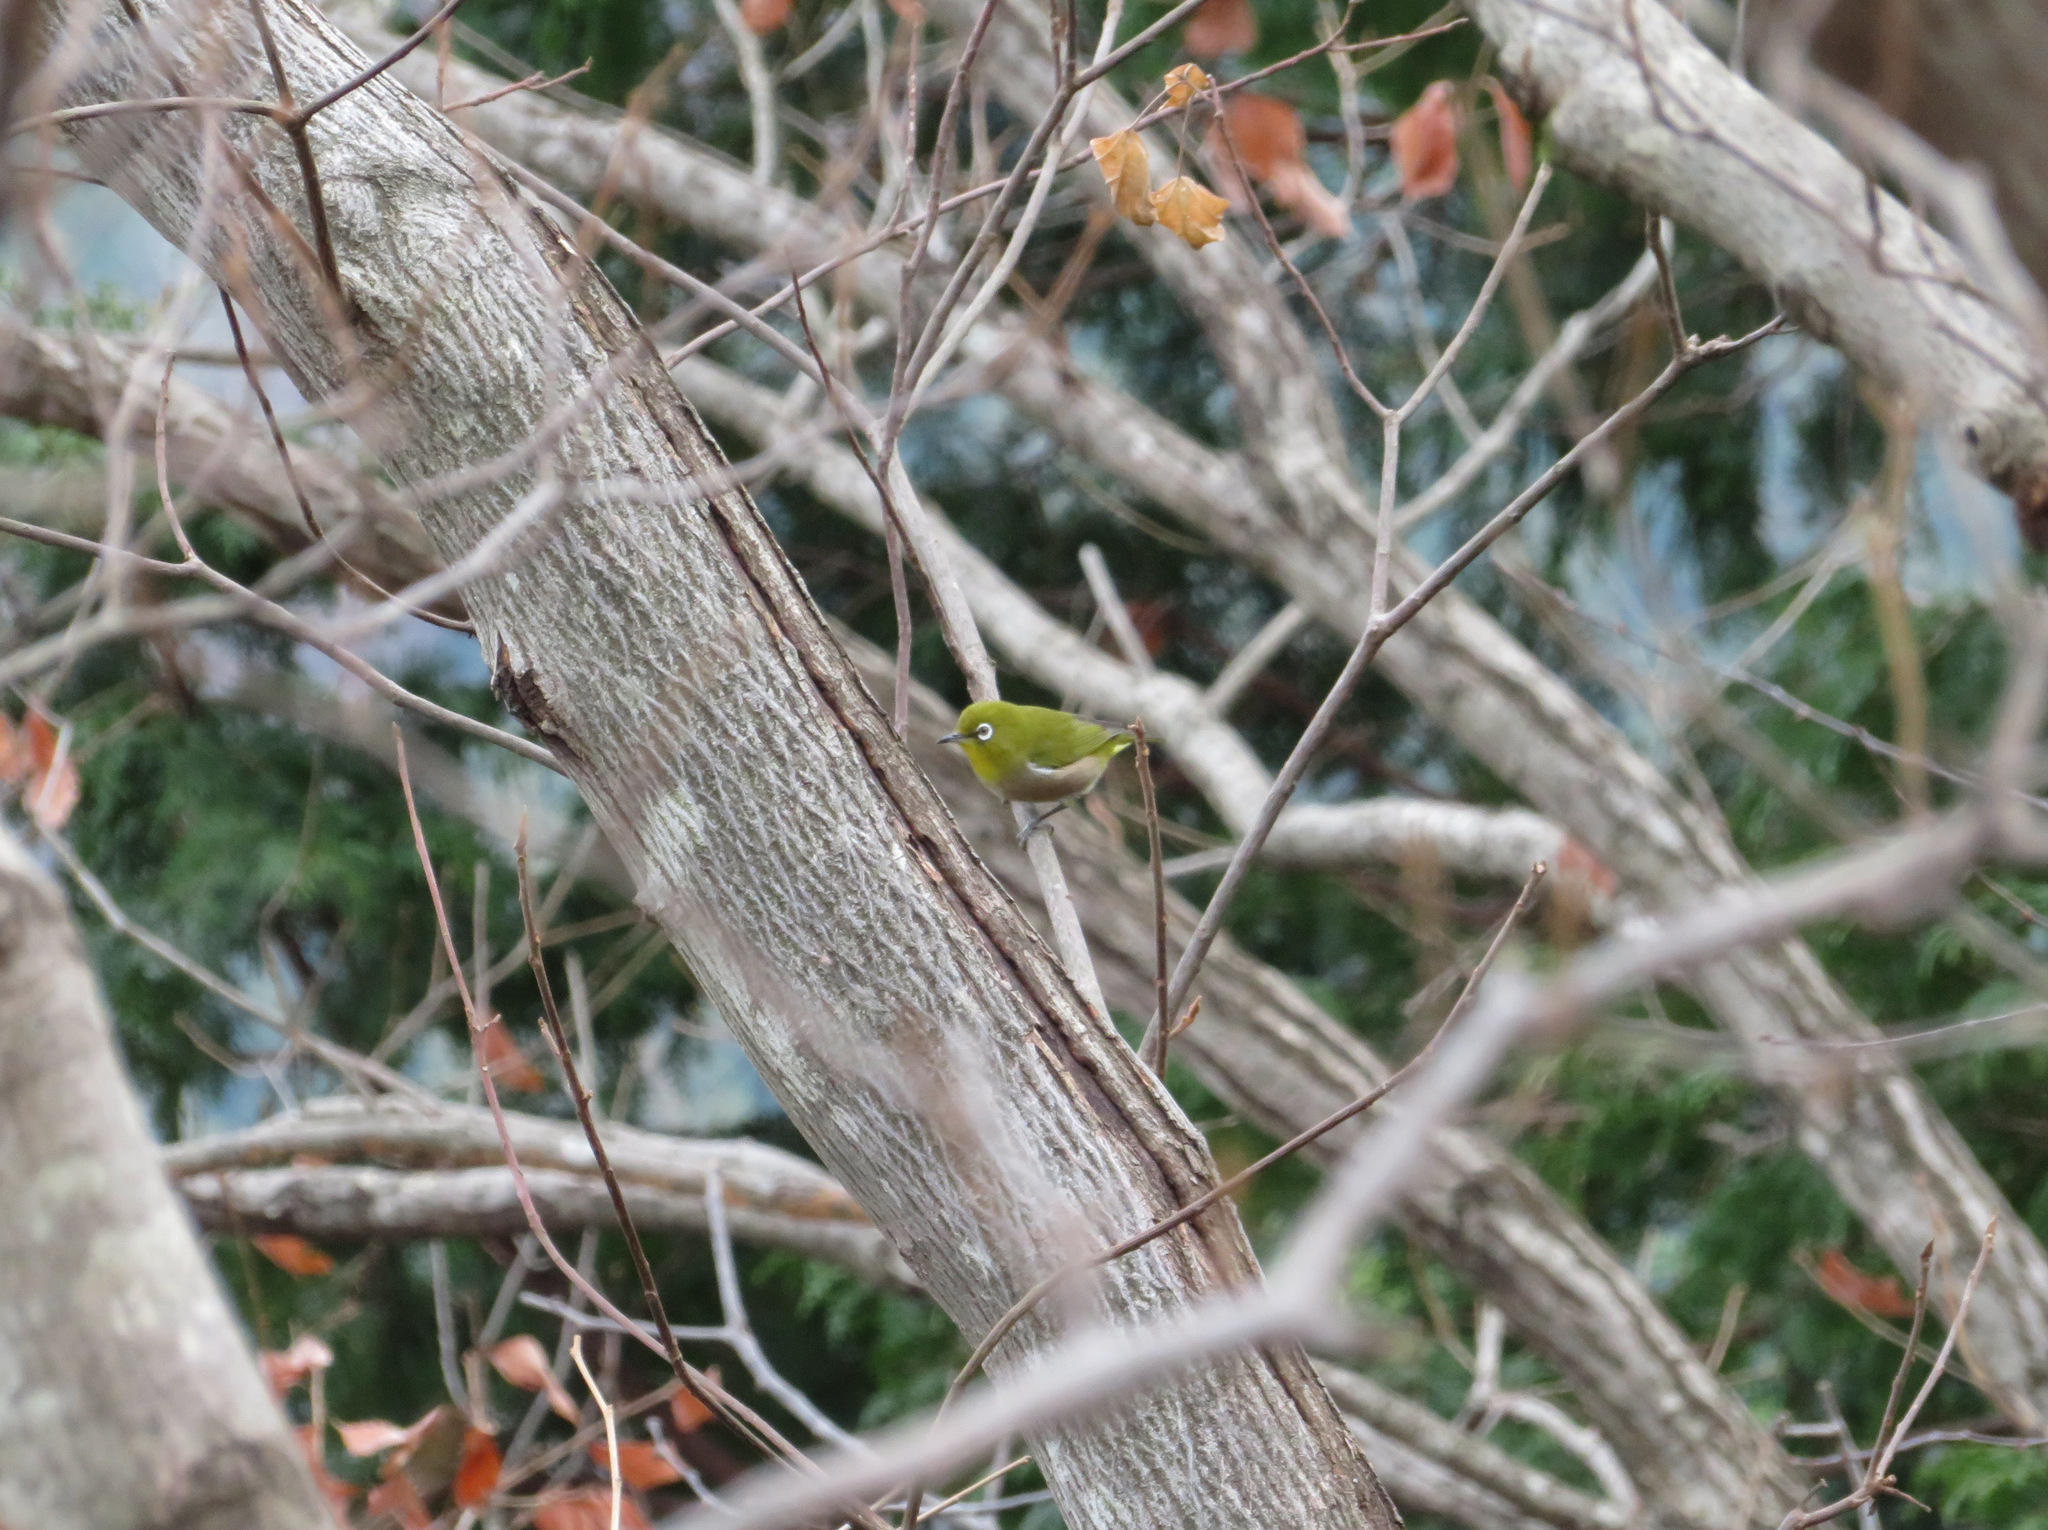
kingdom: Animalia
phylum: Chordata
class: Aves
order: Passeriformes
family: Zosteropidae
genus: Zosterops
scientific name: Zosterops japonicus
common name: Japanese white-eye
